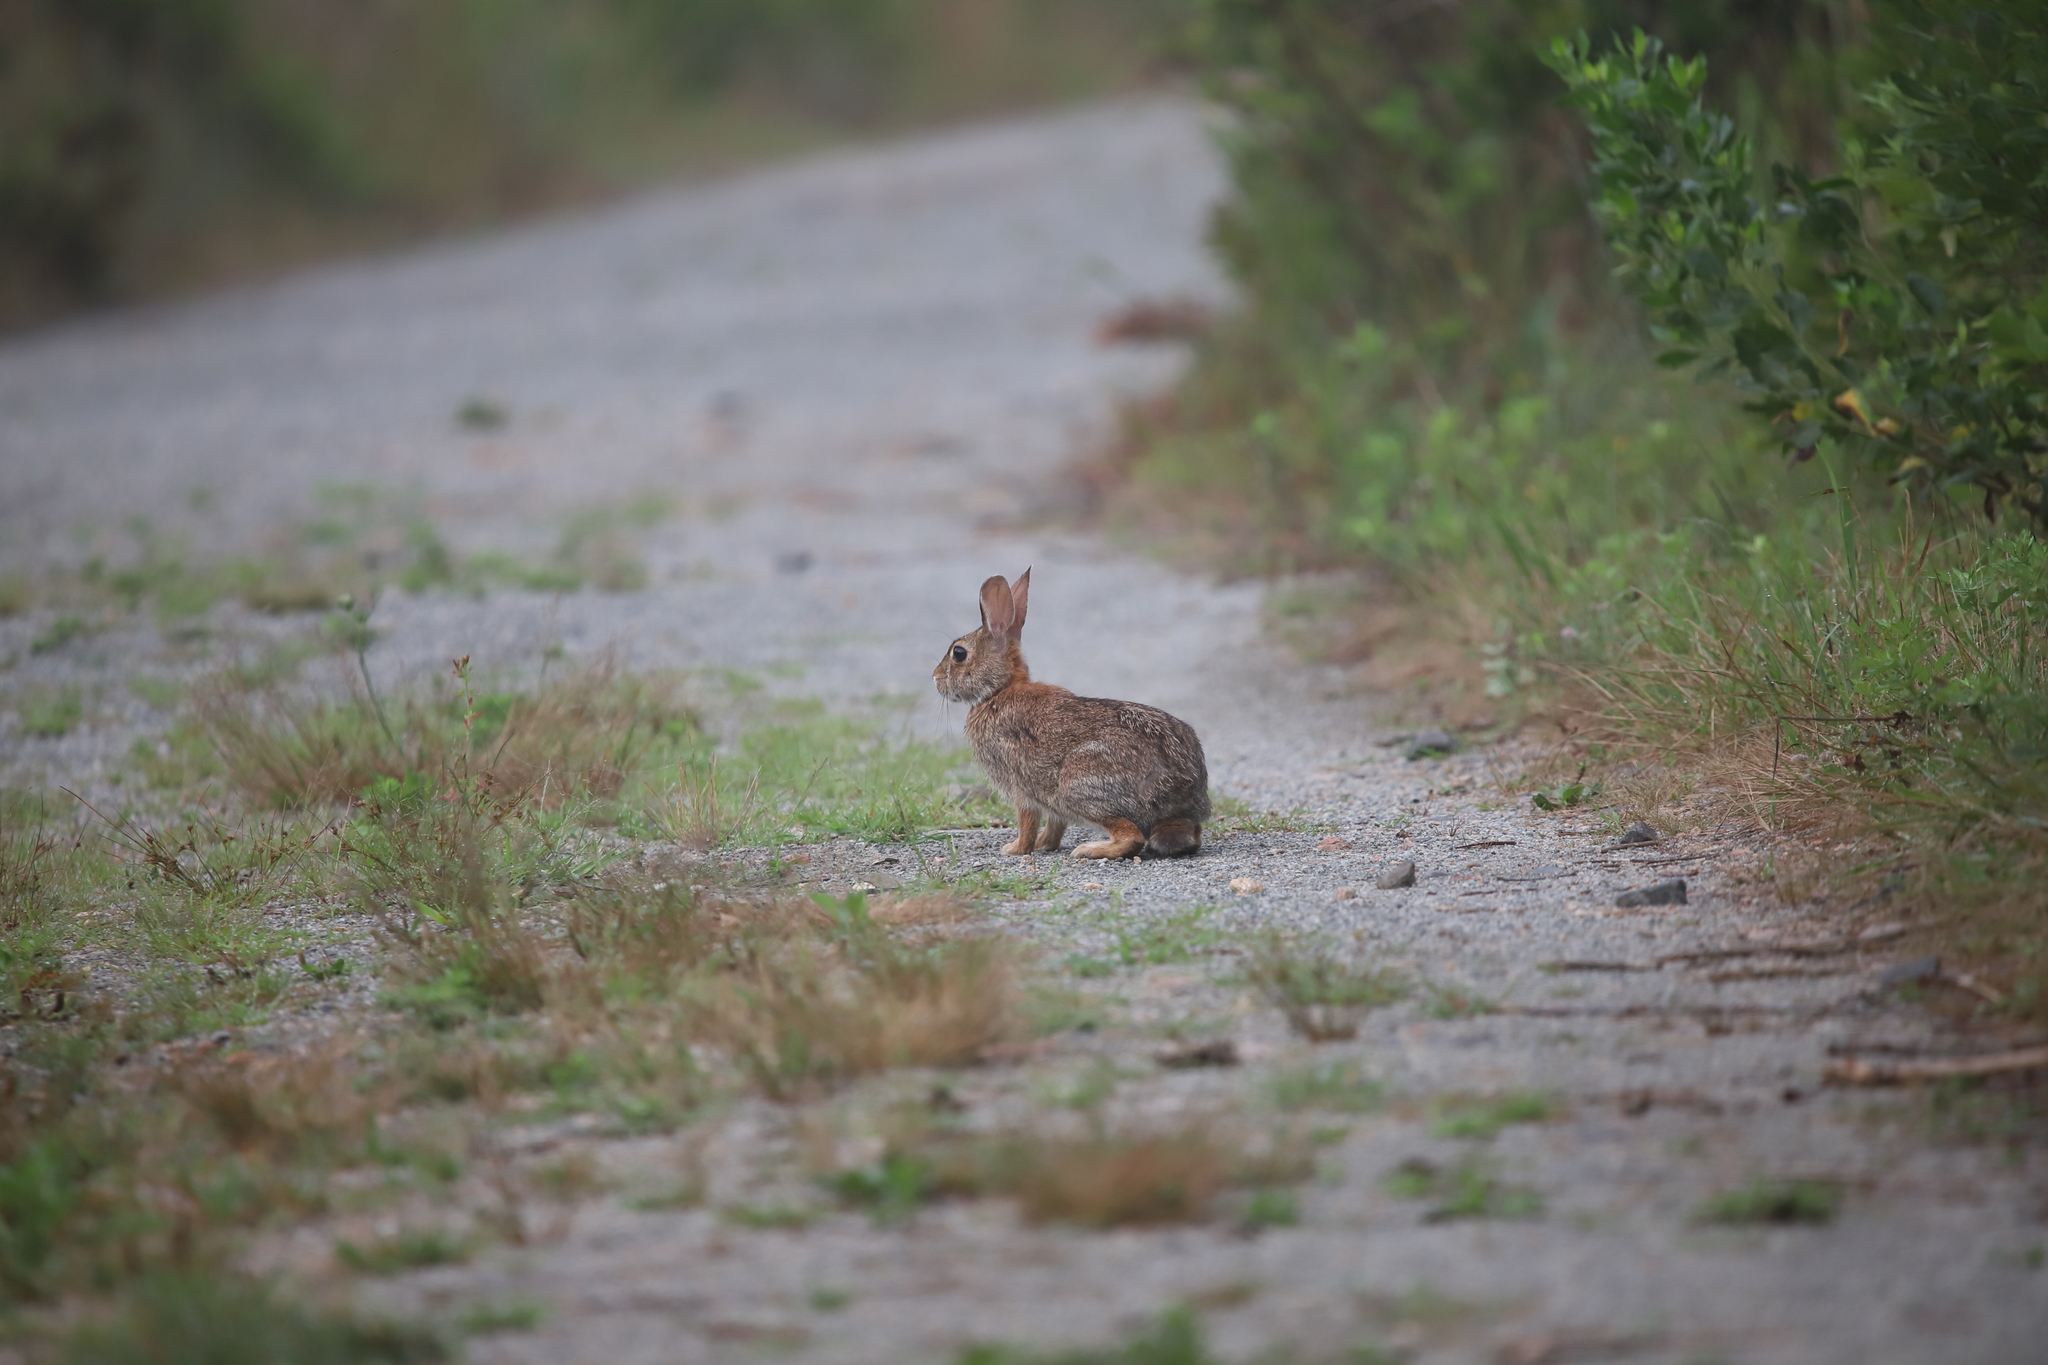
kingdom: Animalia
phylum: Chordata
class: Mammalia
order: Lagomorpha
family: Leporidae
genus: Sylvilagus
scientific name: Sylvilagus floridanus
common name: Eastern cottontail
